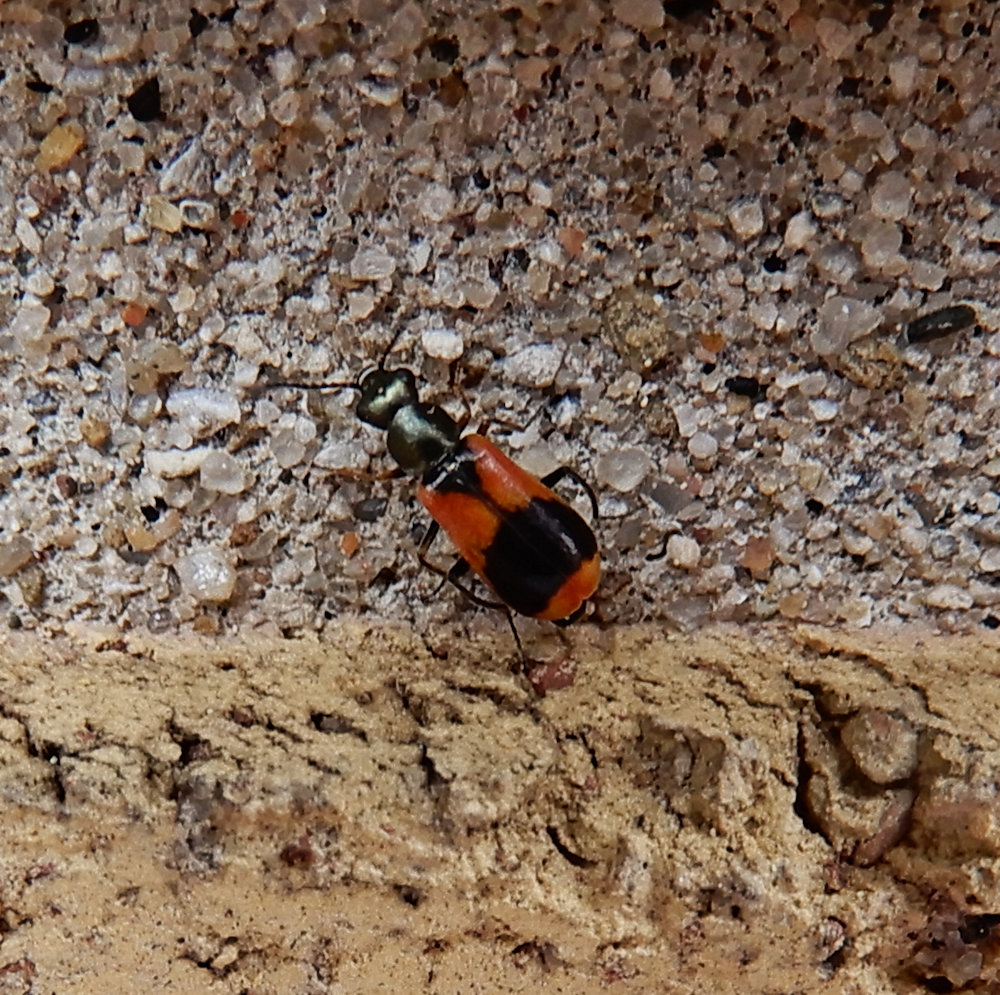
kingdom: Animalia
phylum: Arthropoda
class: Insecta
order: Coleoptera
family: Melyridae
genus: Anthocomus
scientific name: Anthocomus equestris
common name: Black-banded soft-winged flower beetle
